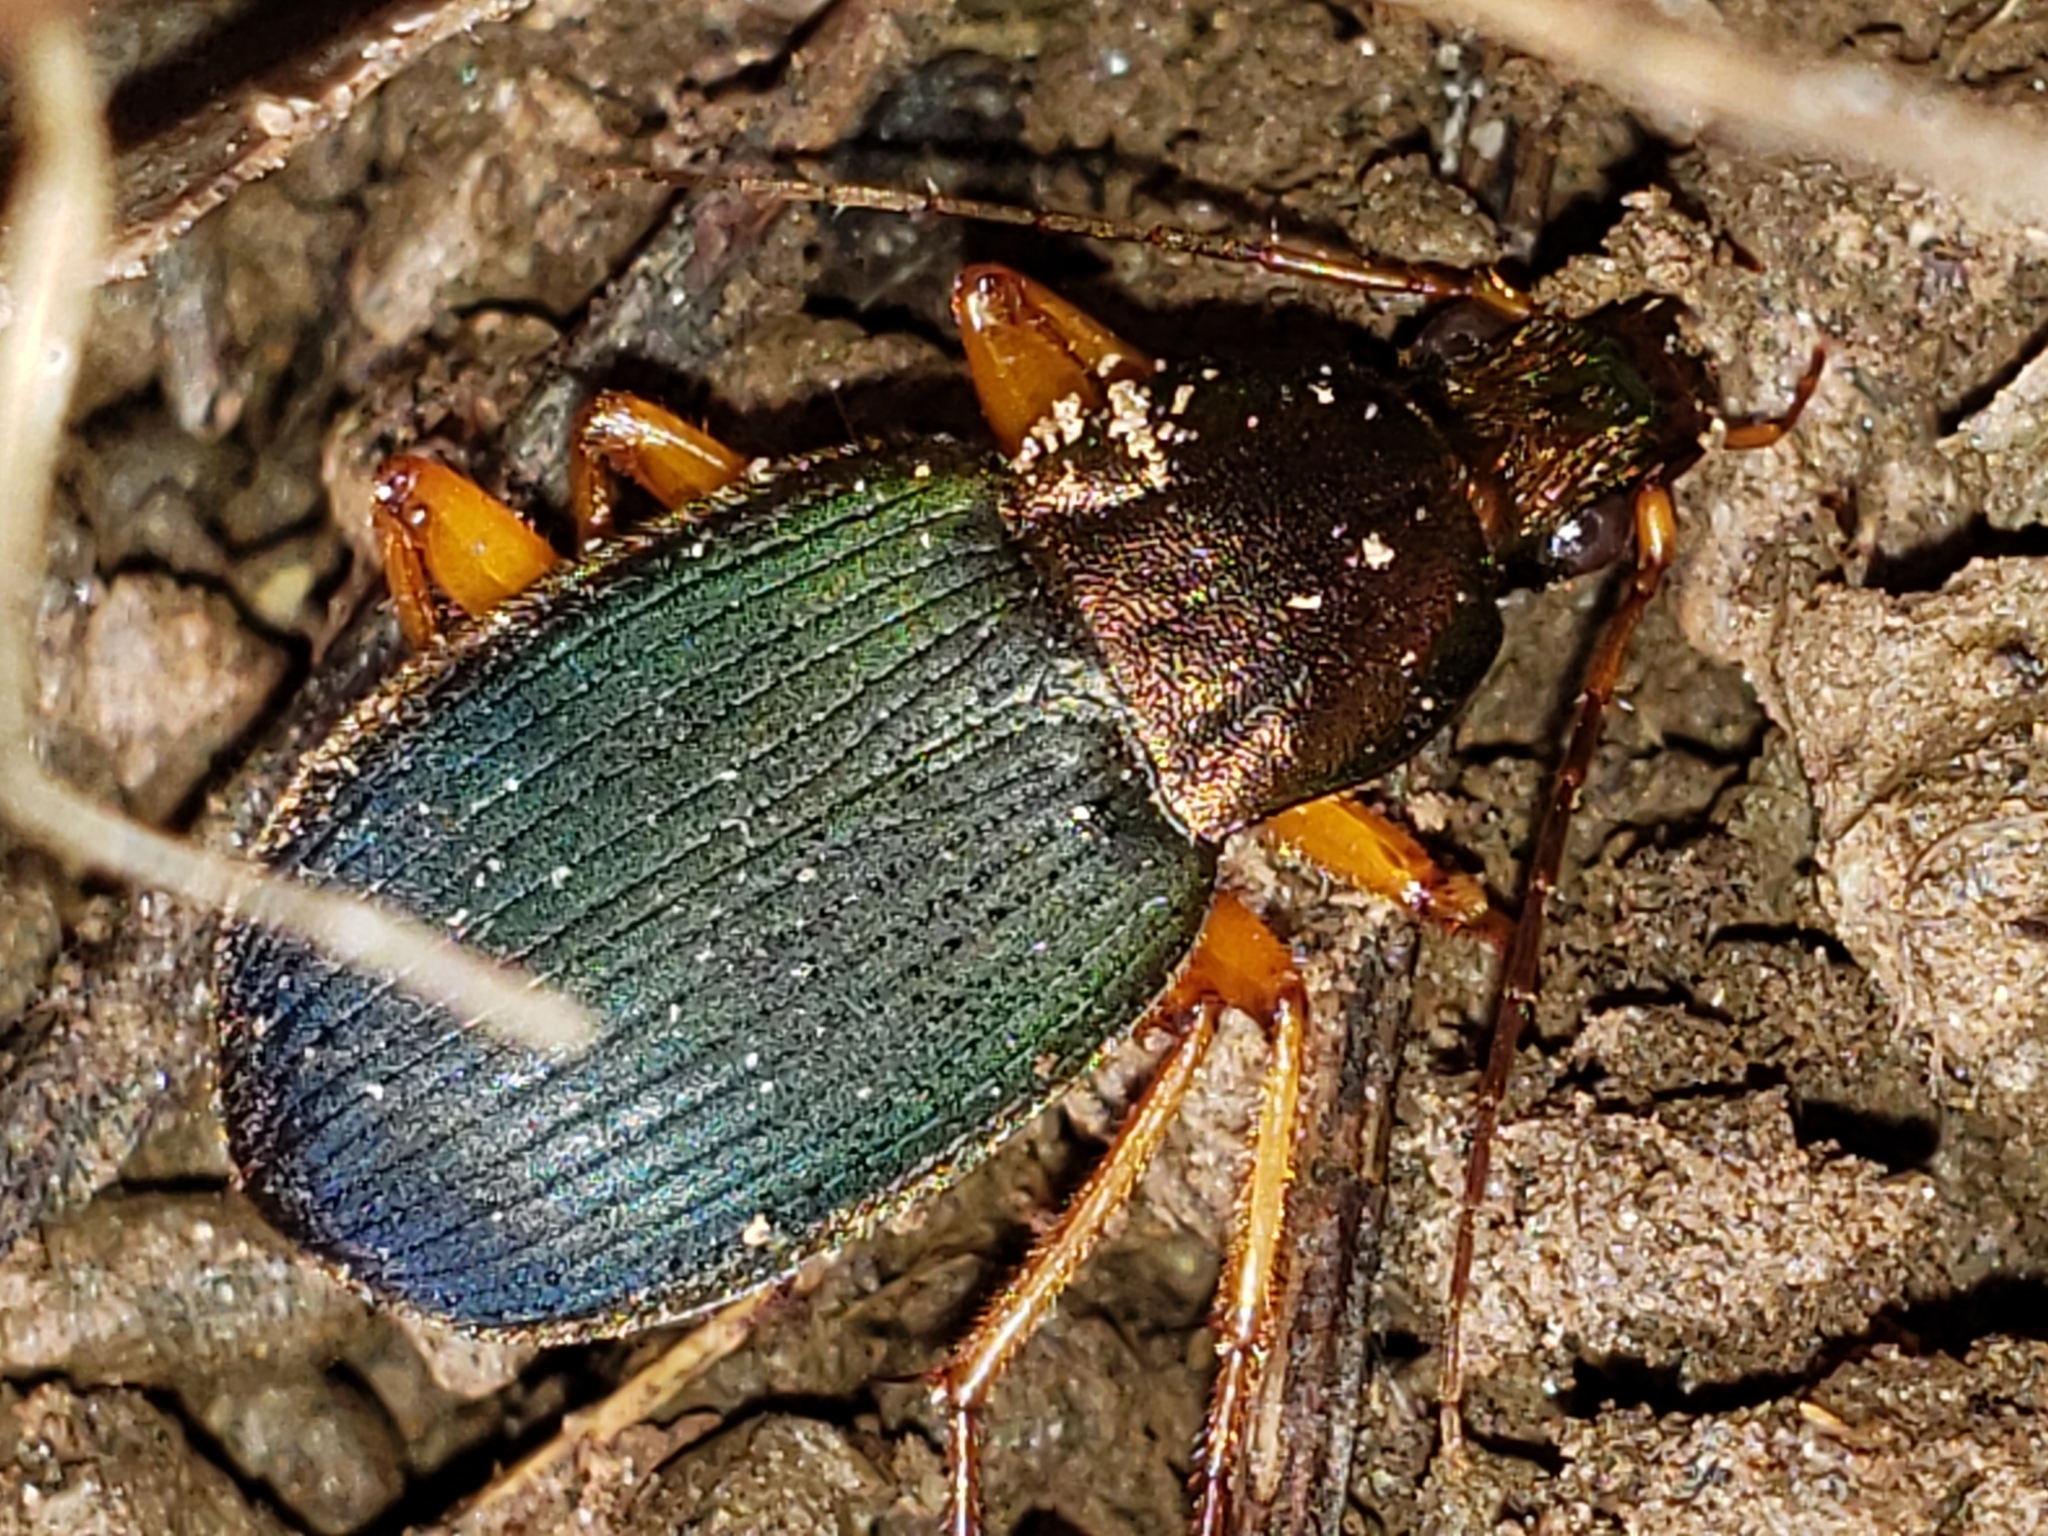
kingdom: Animalia
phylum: Arthropoda
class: Insecta
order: Coleoptera
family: Carabidae
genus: Chlaenius
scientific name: Chlaenius aestivus
